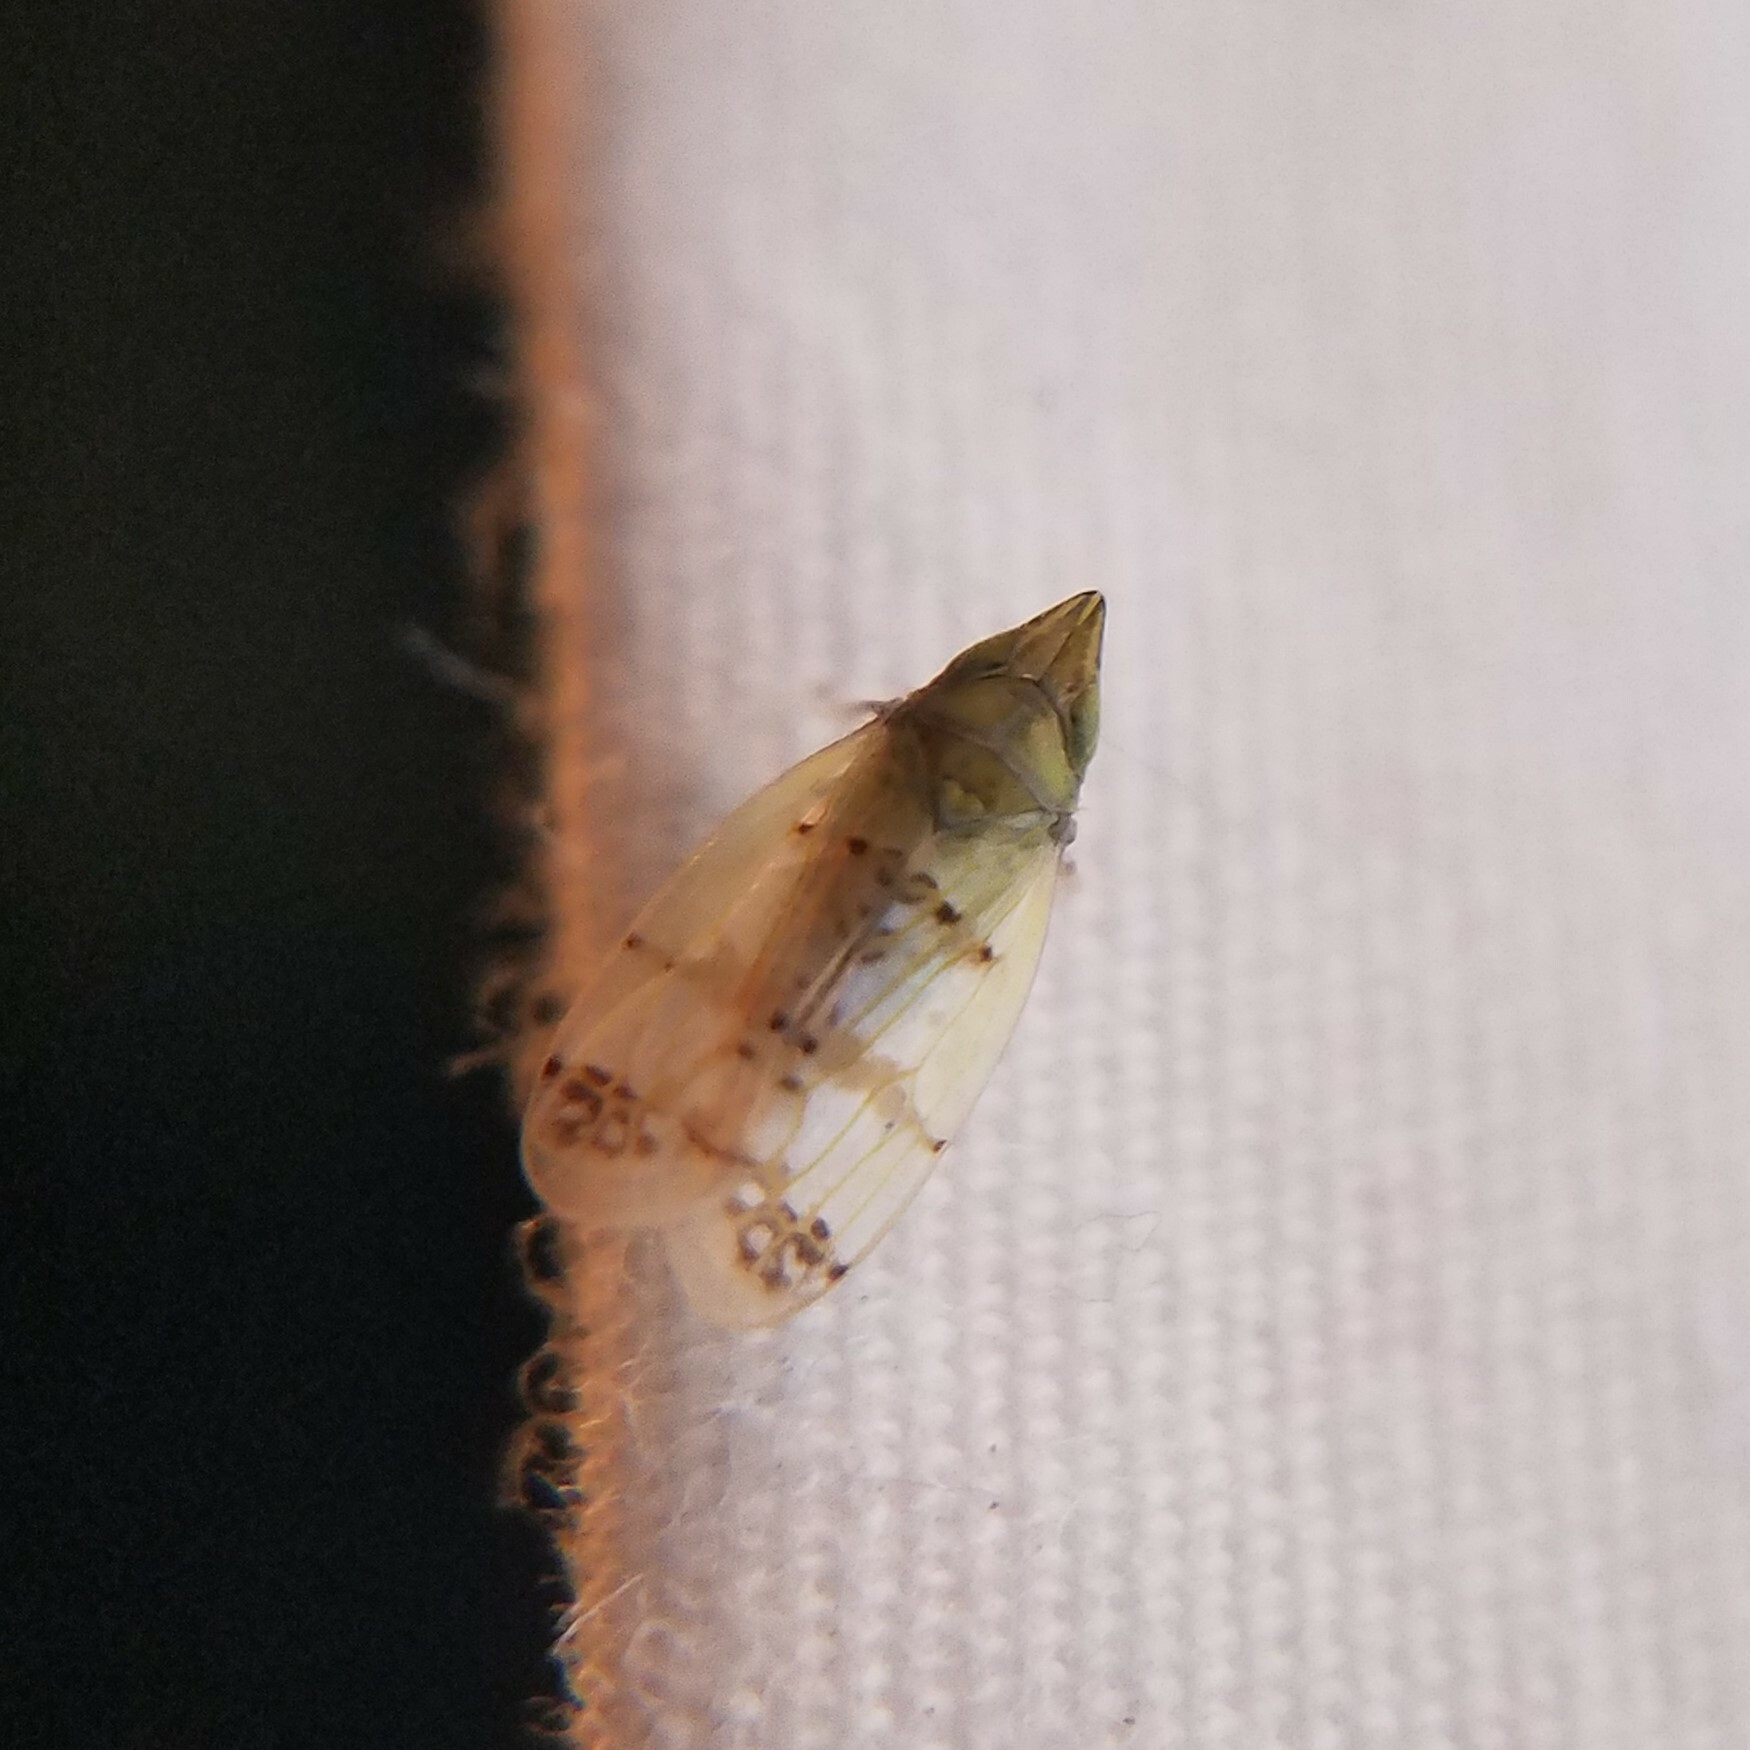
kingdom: Animalia
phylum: Arthropoda
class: Insecta
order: Hemiptera
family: Cicadellidae
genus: Japananus
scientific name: Japananus hyalinus
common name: The japanese maple leafhopper
